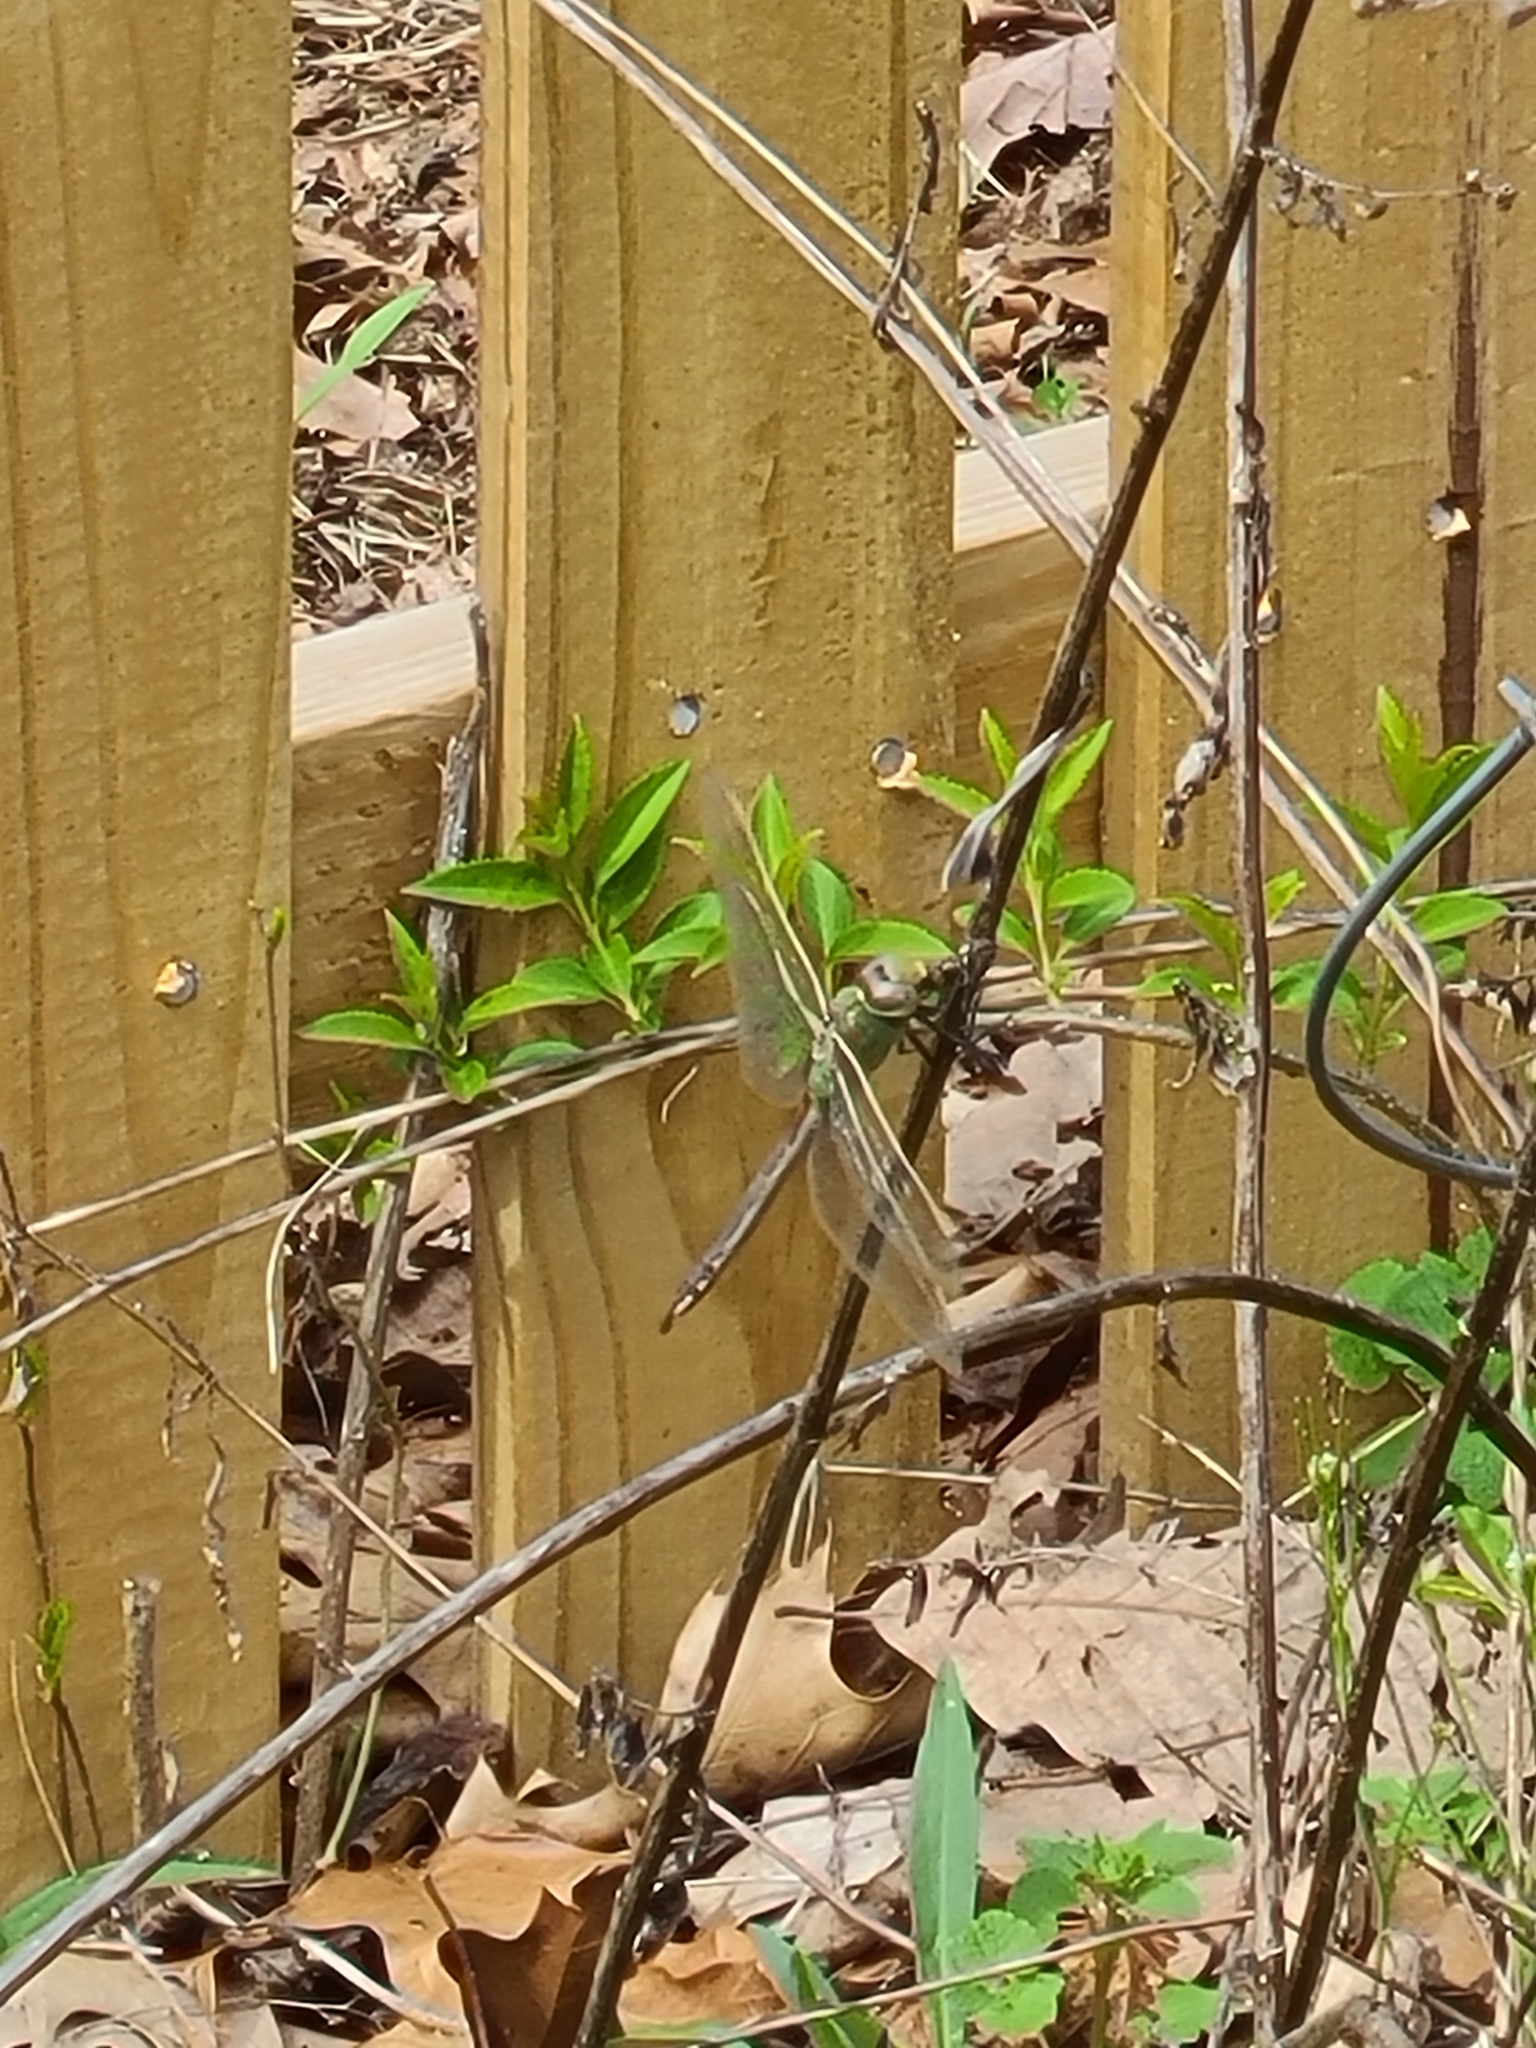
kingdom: Animalia
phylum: Arthropoda
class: Insecta
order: Odonata
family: Aeshnidae
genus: Anax
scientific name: Anax junius
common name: Common green darner
